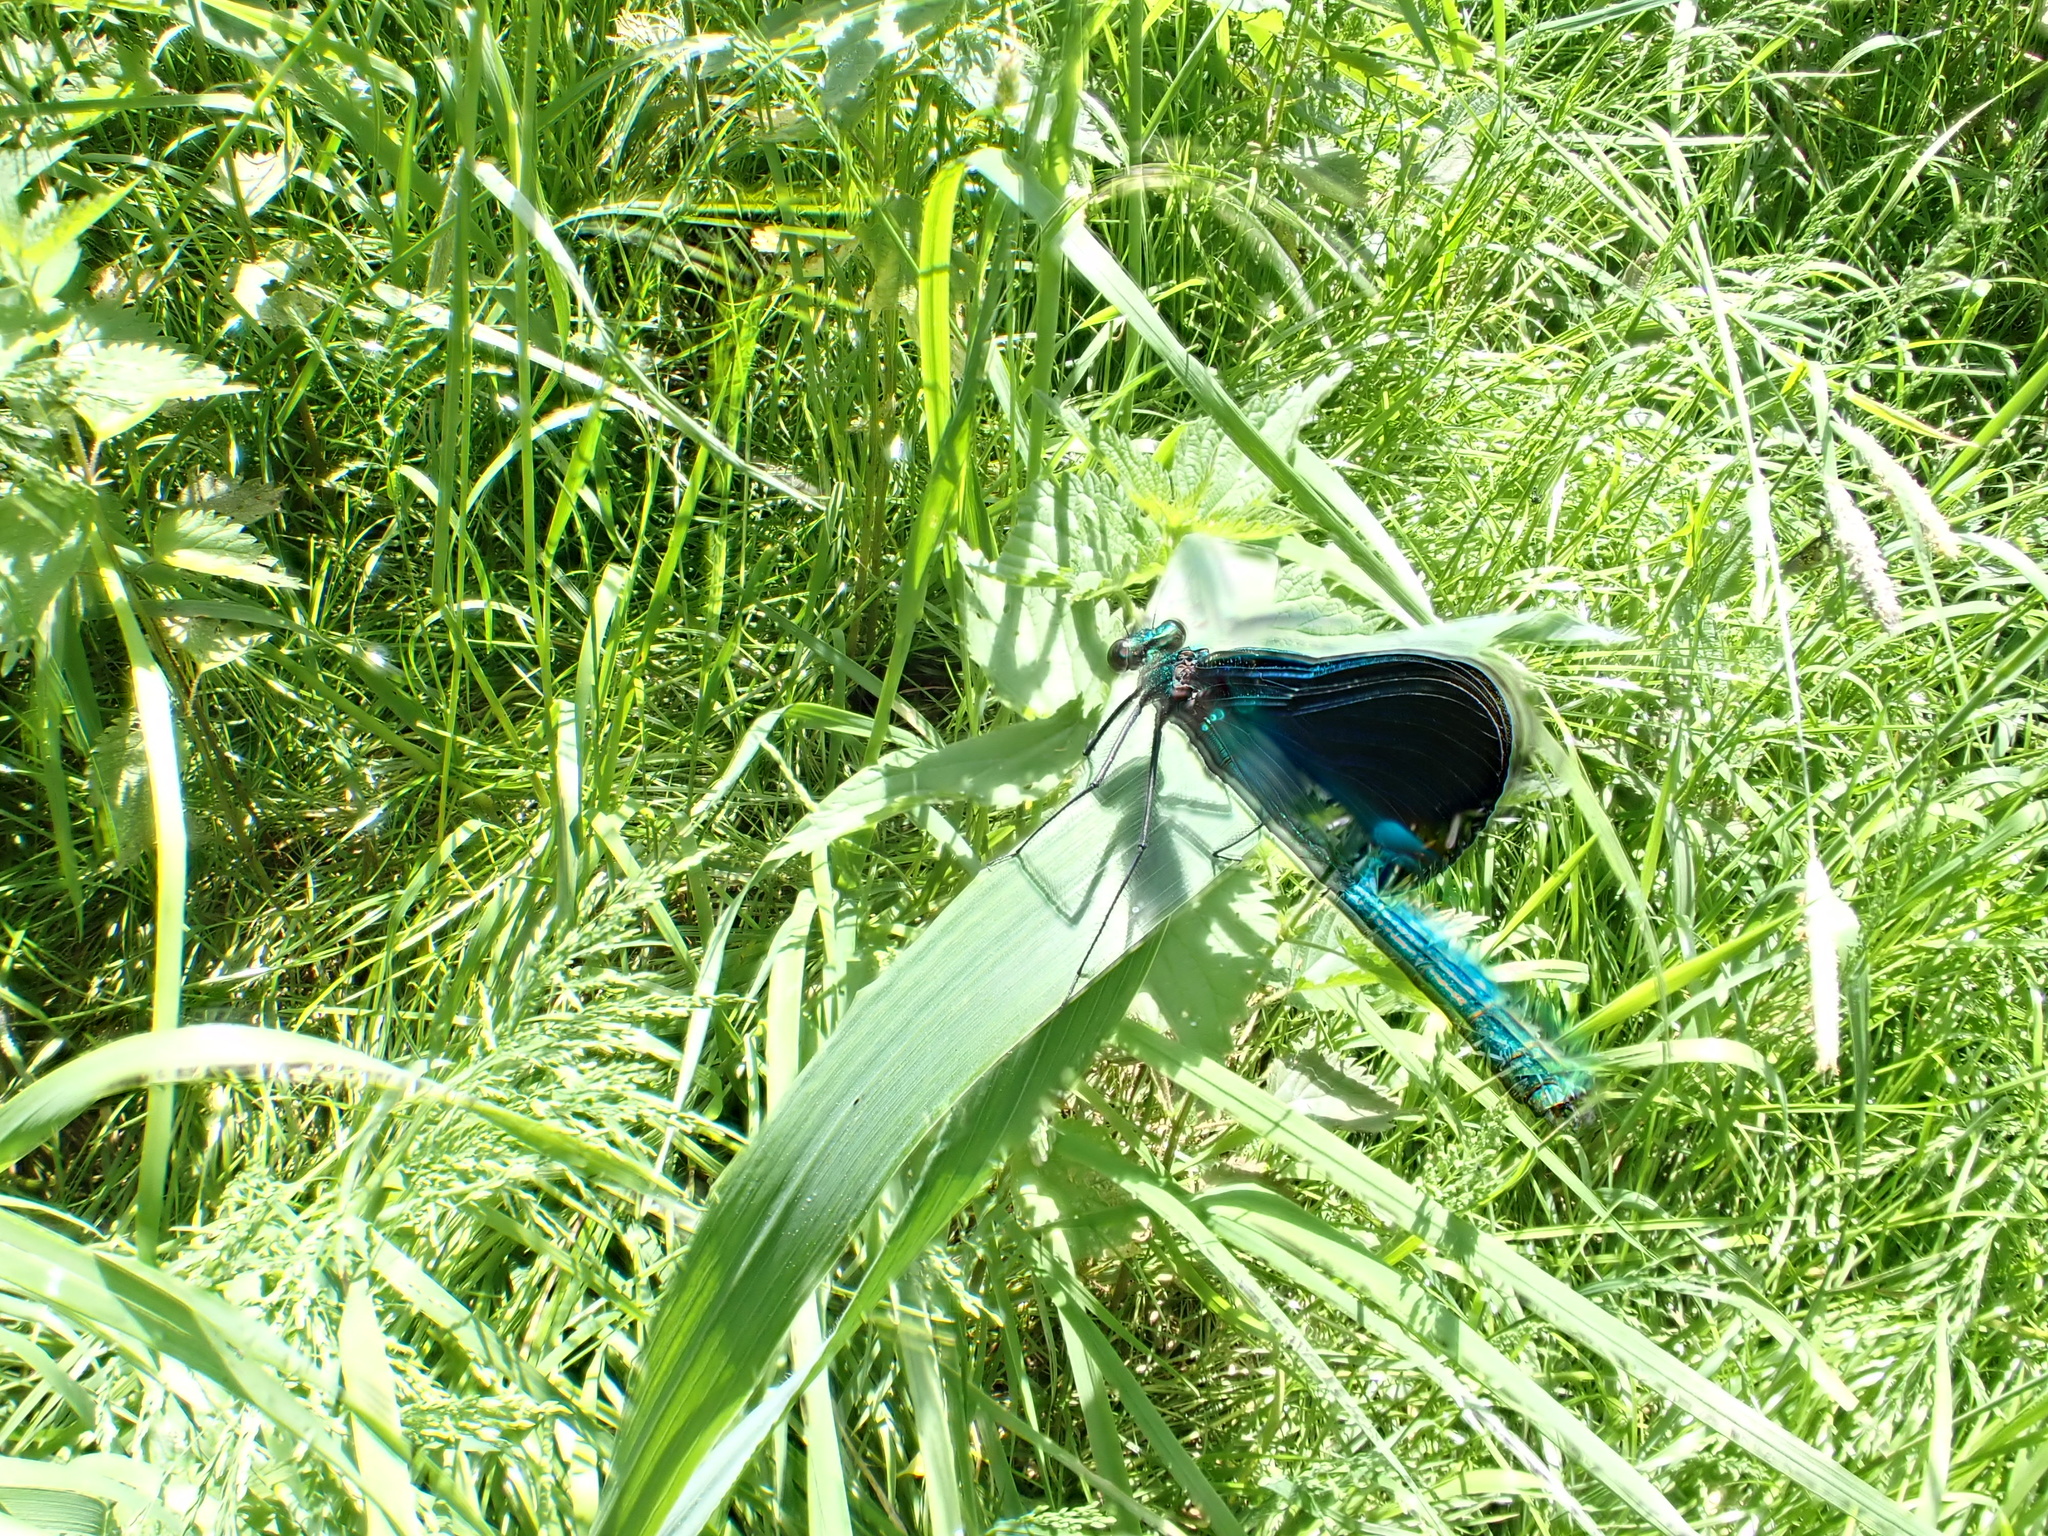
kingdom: Animalia
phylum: Arthropoda
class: Insecta
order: Odonata
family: Calopterygidae
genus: Calopteryx
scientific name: Calopteryx virgo
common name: Beautiful demoiselle
